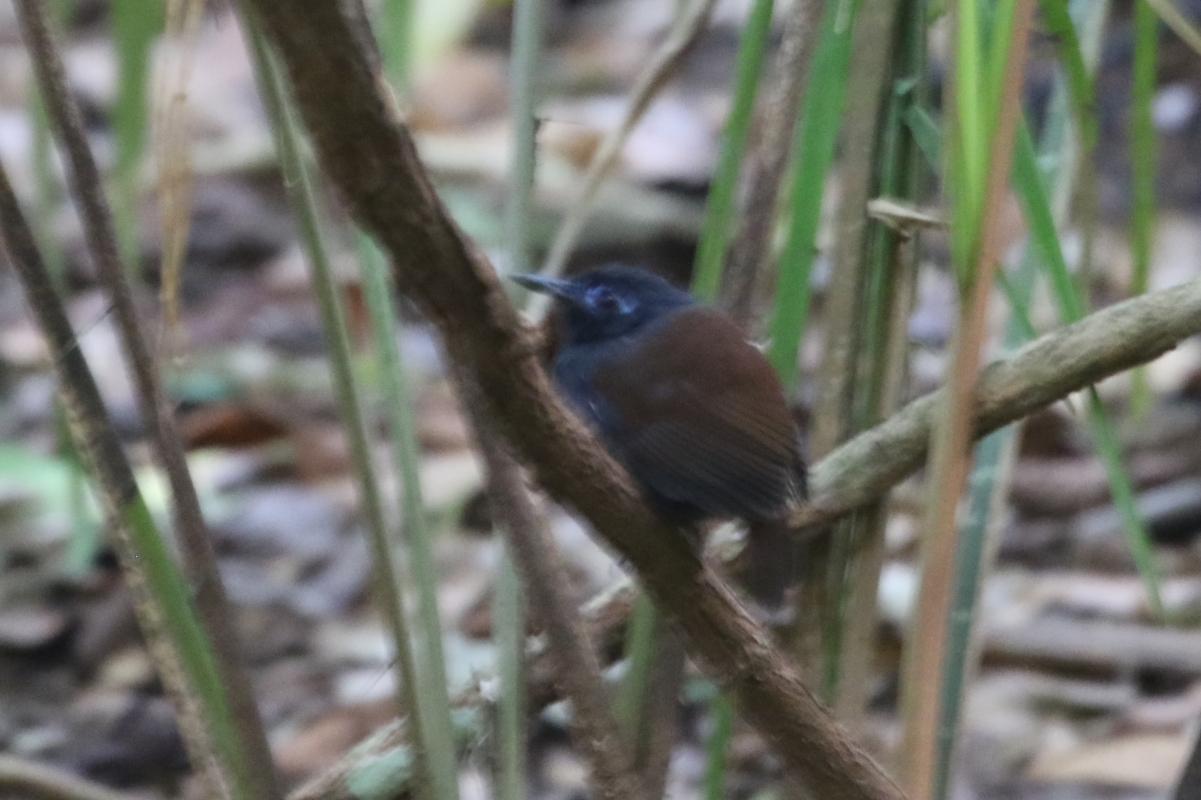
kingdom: Animalia
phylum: Chordata
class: Aves
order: Passeriformes
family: Thamnophilidae
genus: Myrmeciza
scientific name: Myrmeciza exsul
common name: Chestnut-backed antbird
